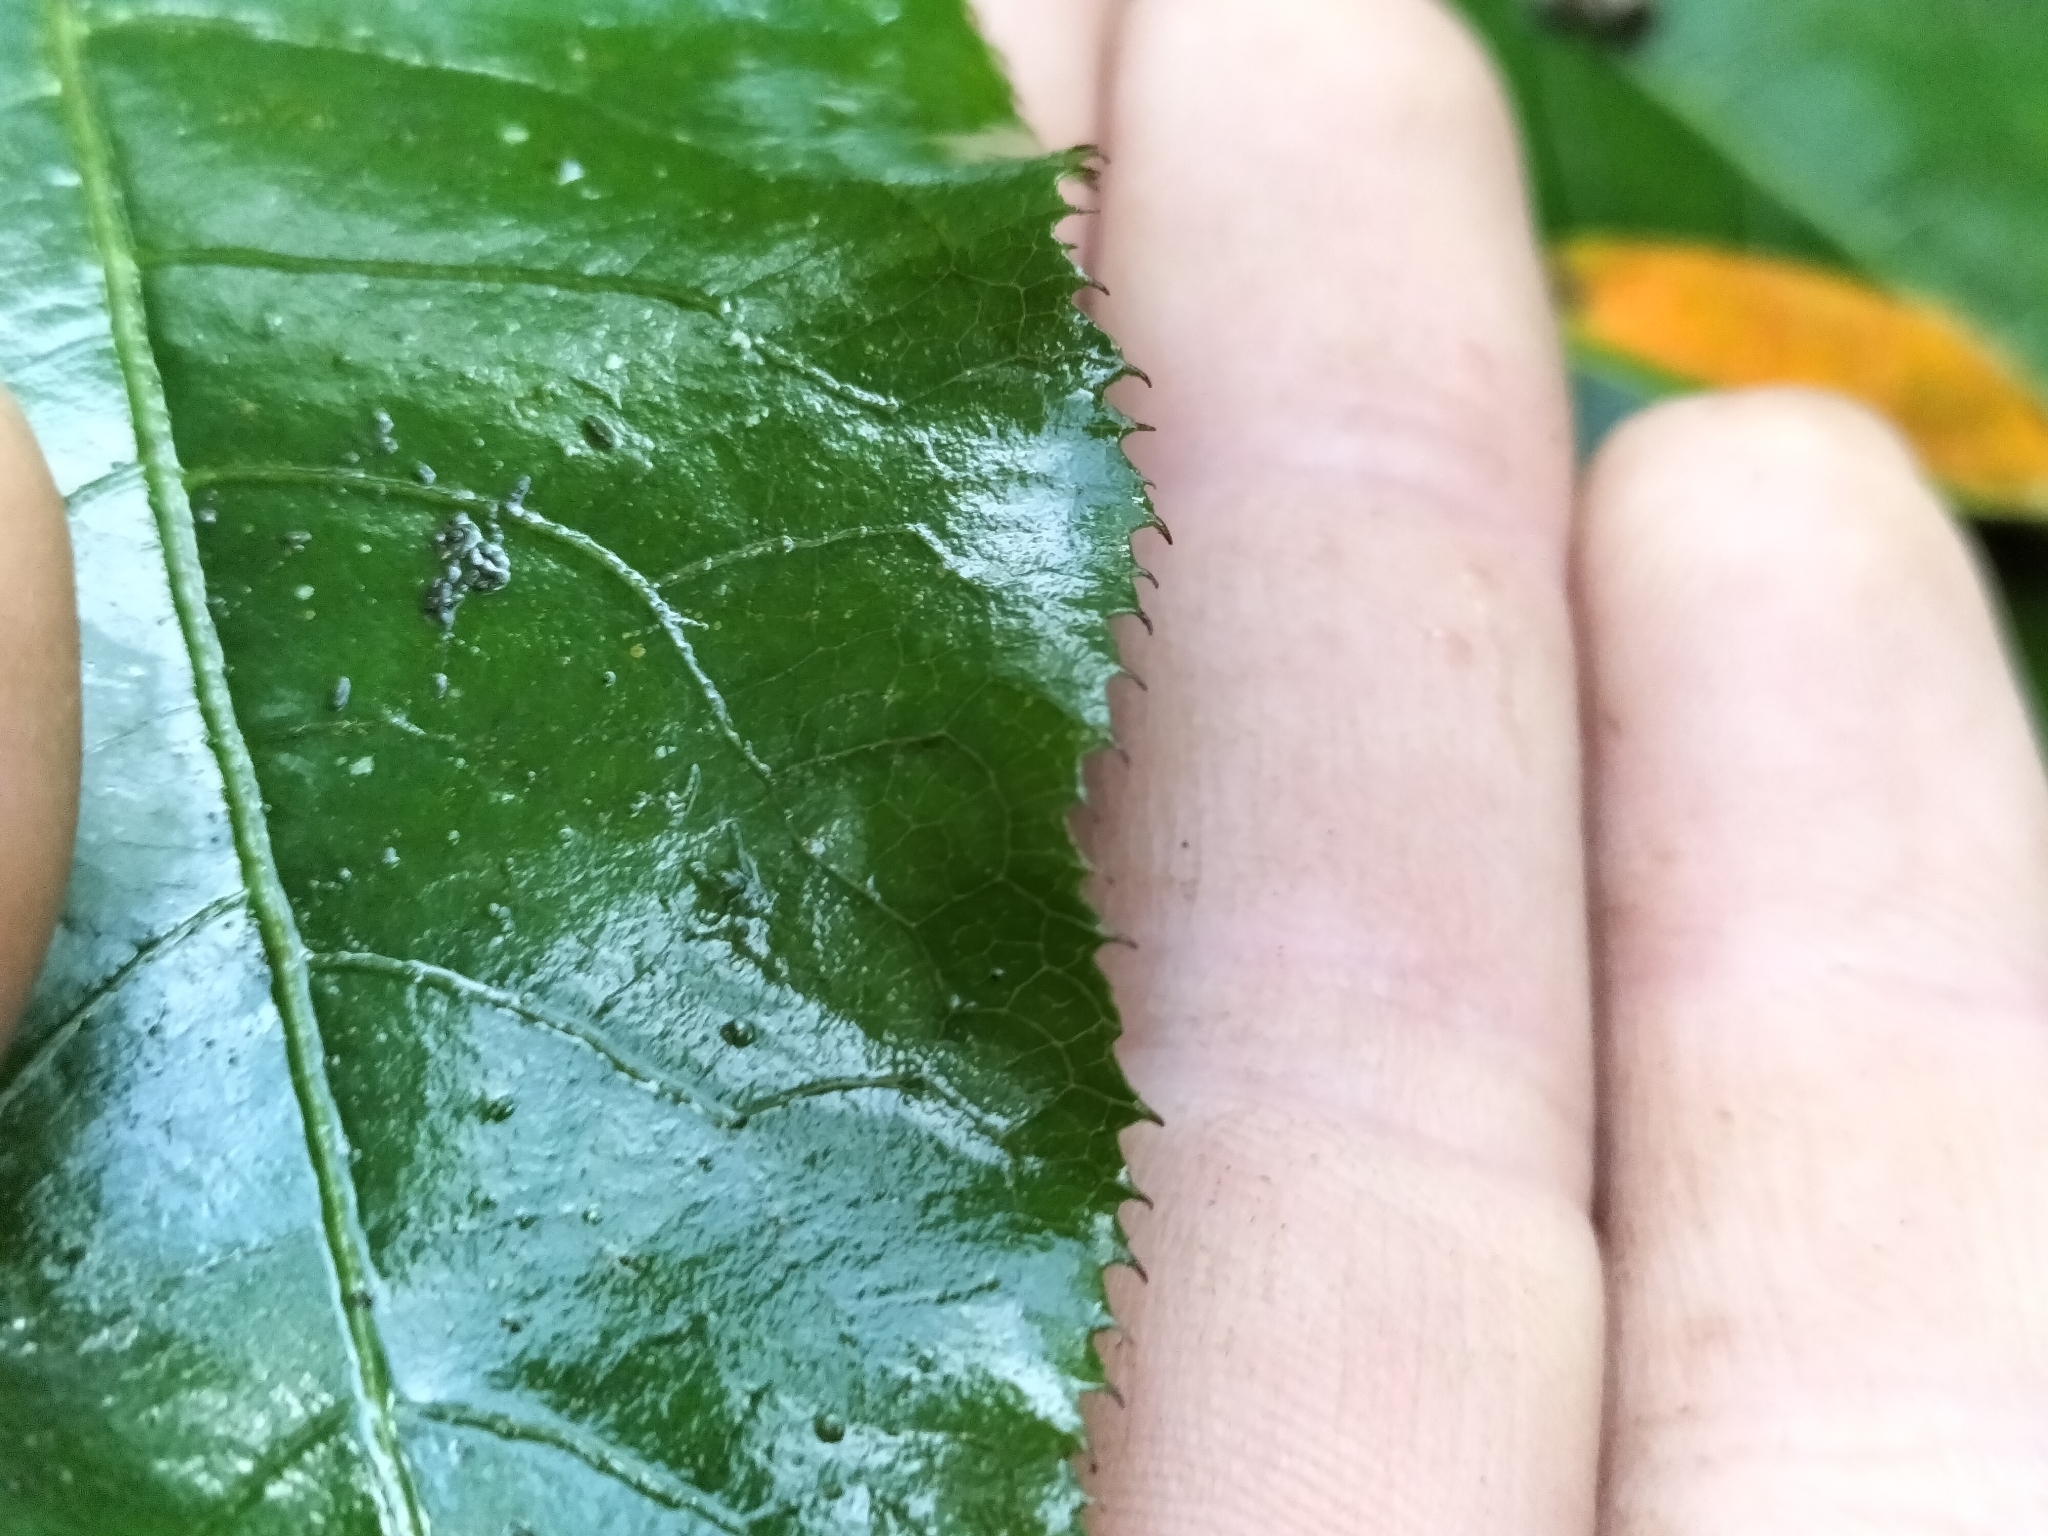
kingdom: Plantae
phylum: Tracheophyta
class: Magnoliopsida
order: Apiales
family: Araliaceae
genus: Schefflera
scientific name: Schefflera digitata
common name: Pate
